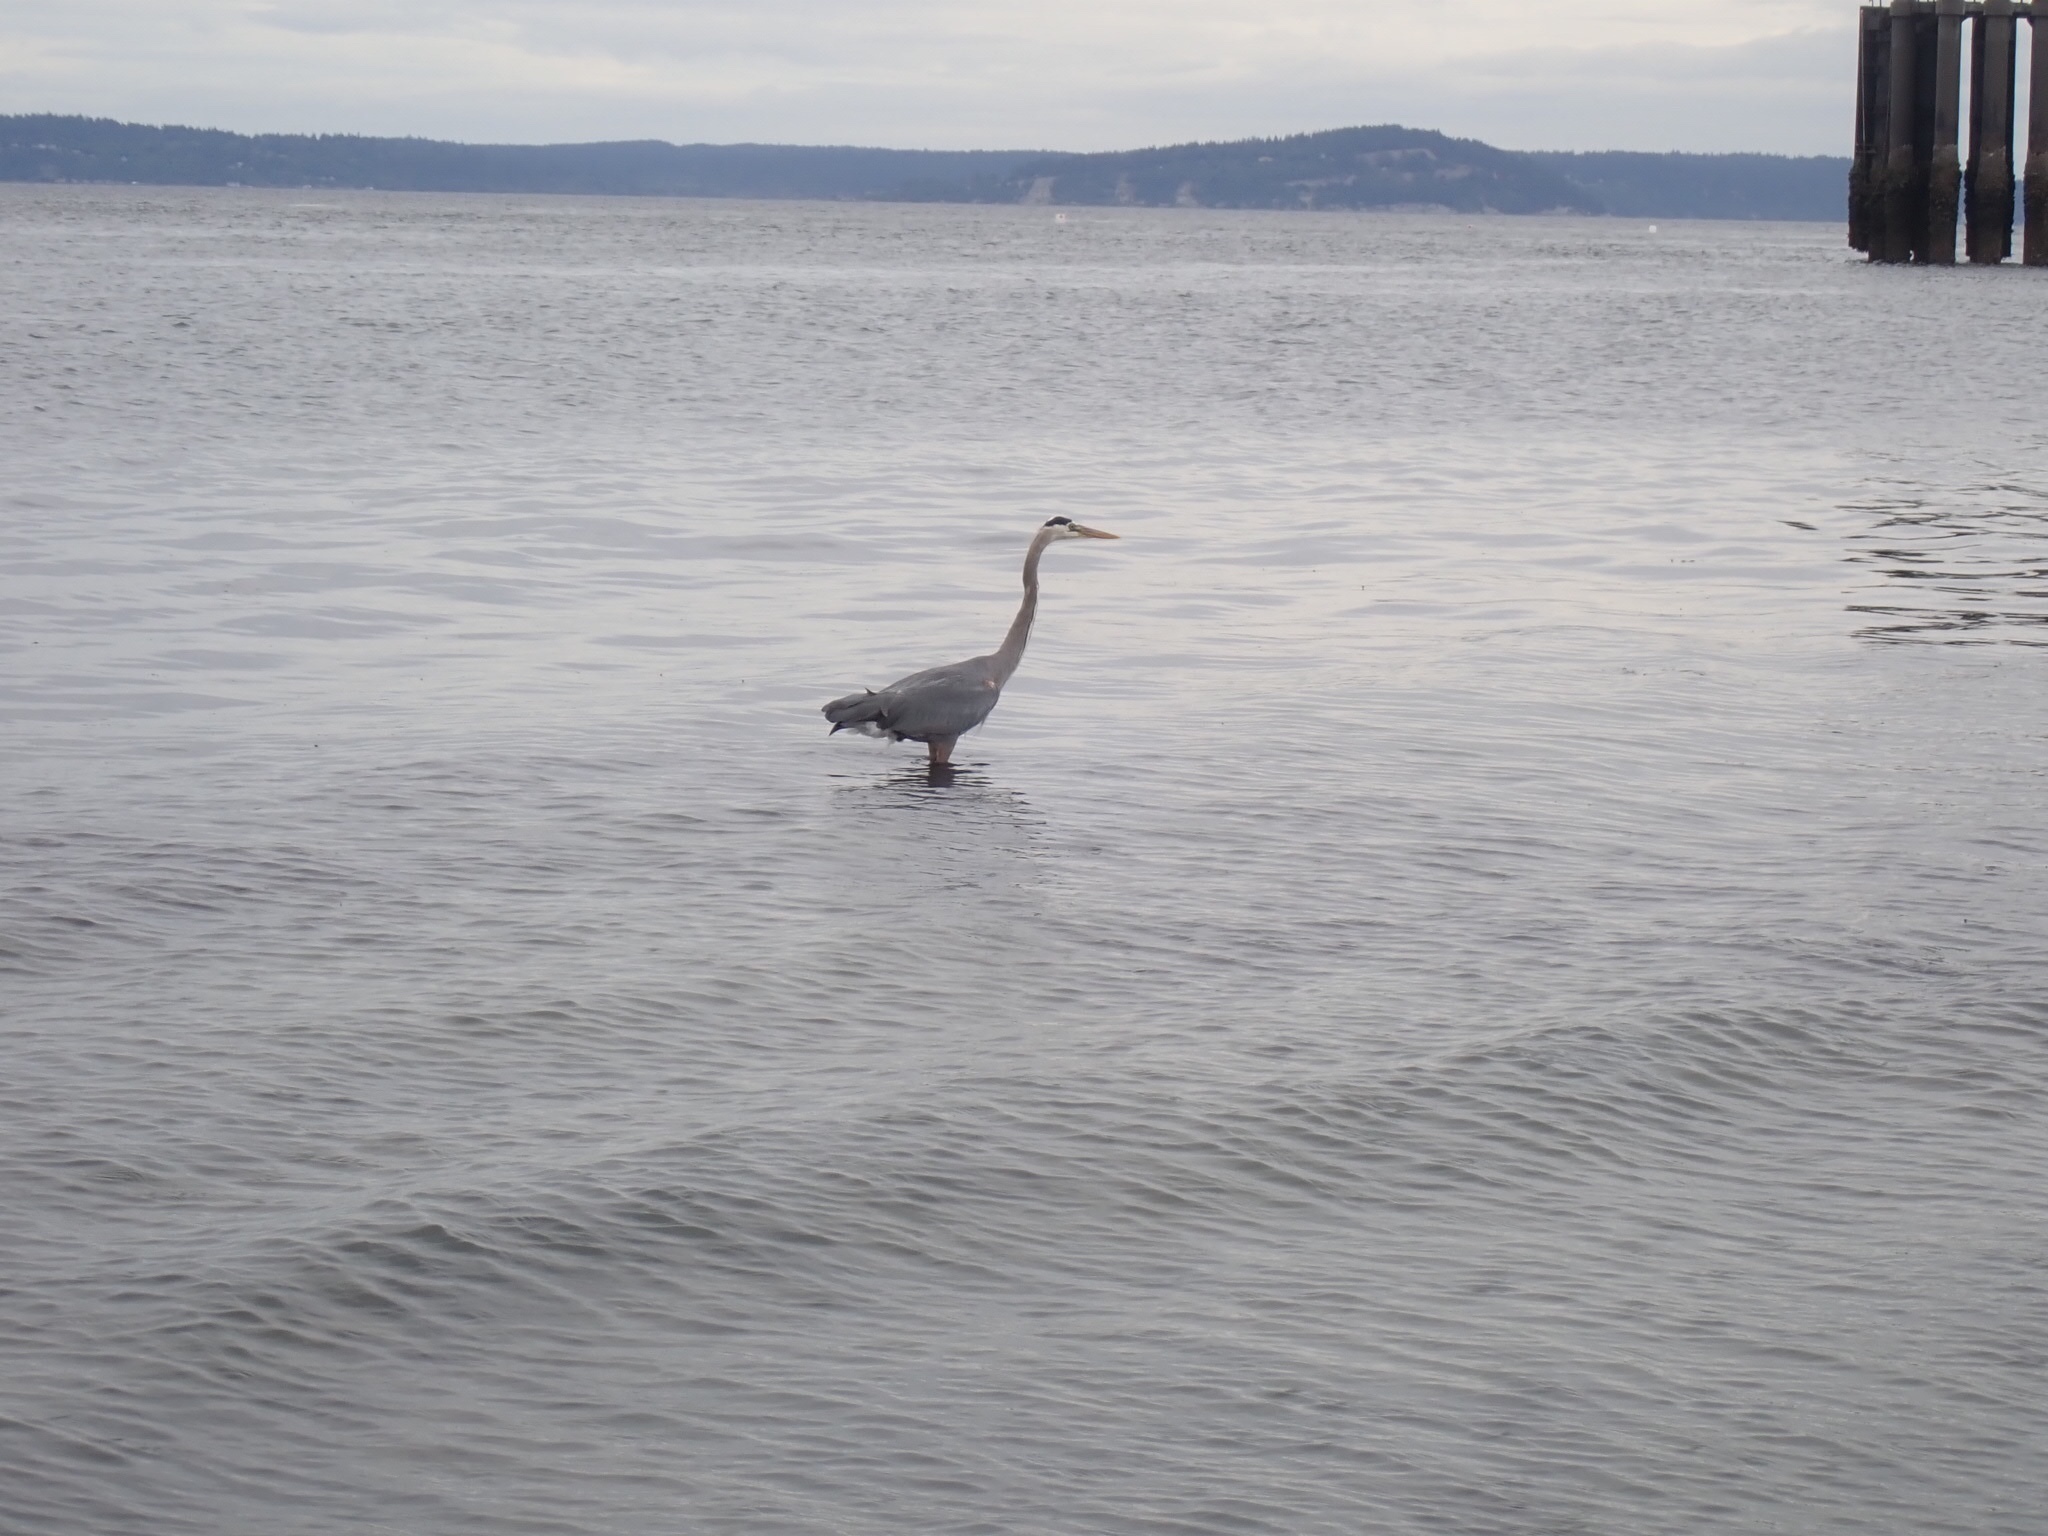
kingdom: Animalia
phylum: Chordata
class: Aves
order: Pelecaniformes
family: Ardeidae
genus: Ardea
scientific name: Ardea herodias
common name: Great blue heron
